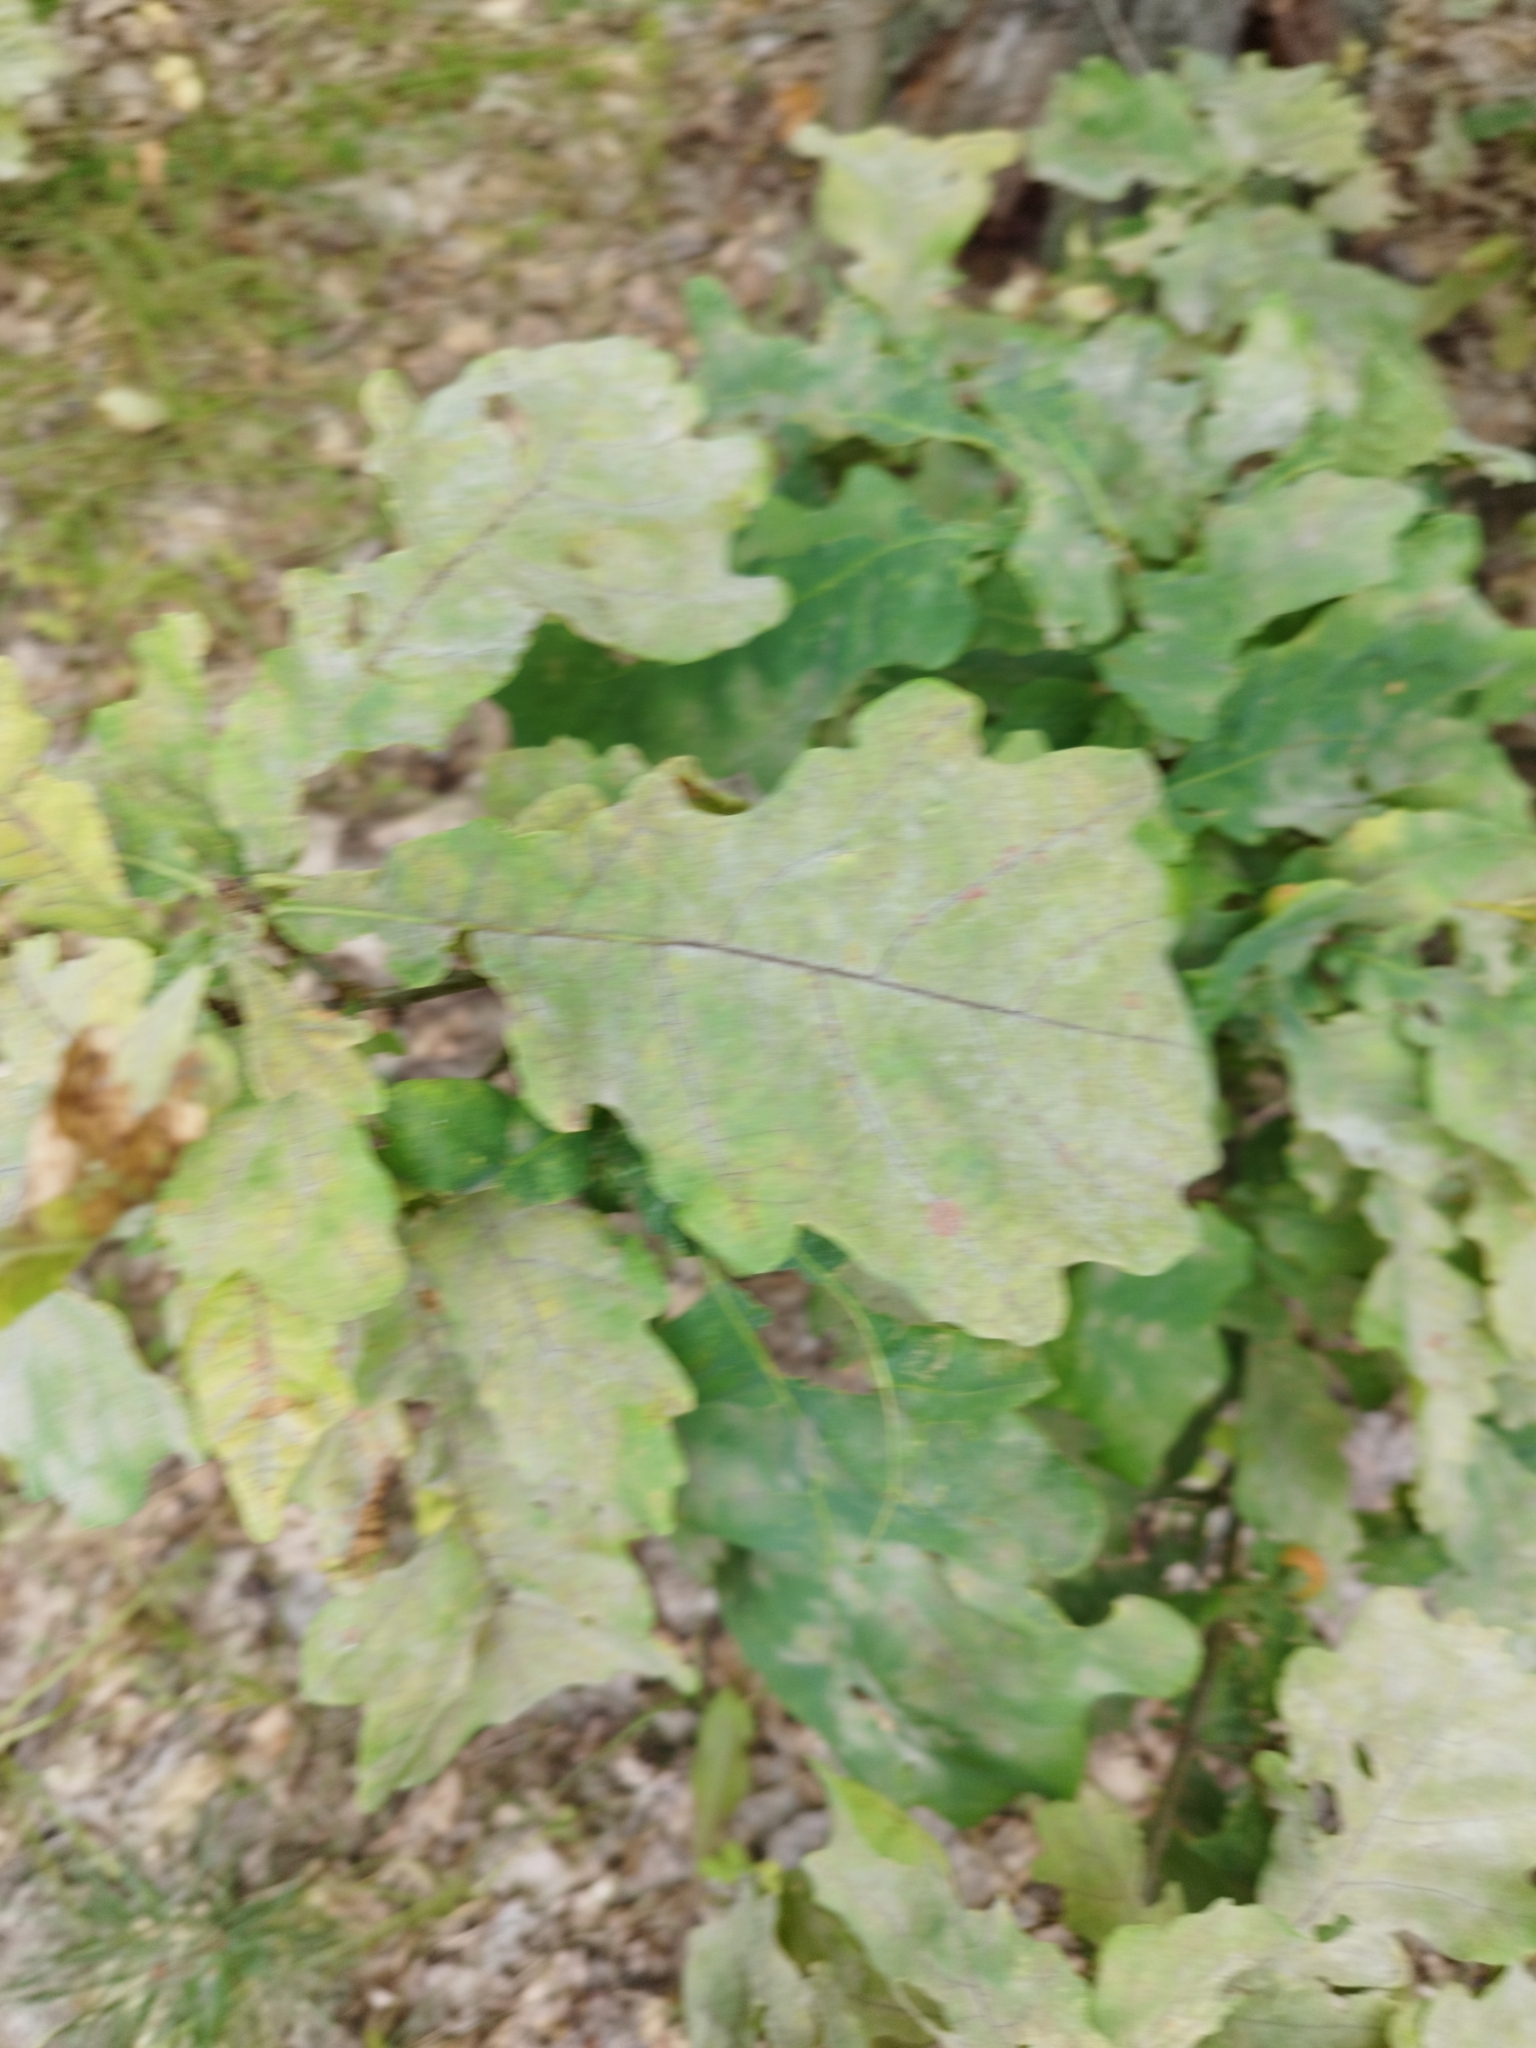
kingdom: Plantae
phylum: Tracheophyta
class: Magnoliopsida
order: Fagales
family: Fagaceae
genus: Quercus
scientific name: Quercus robur
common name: Pedunculate oak
